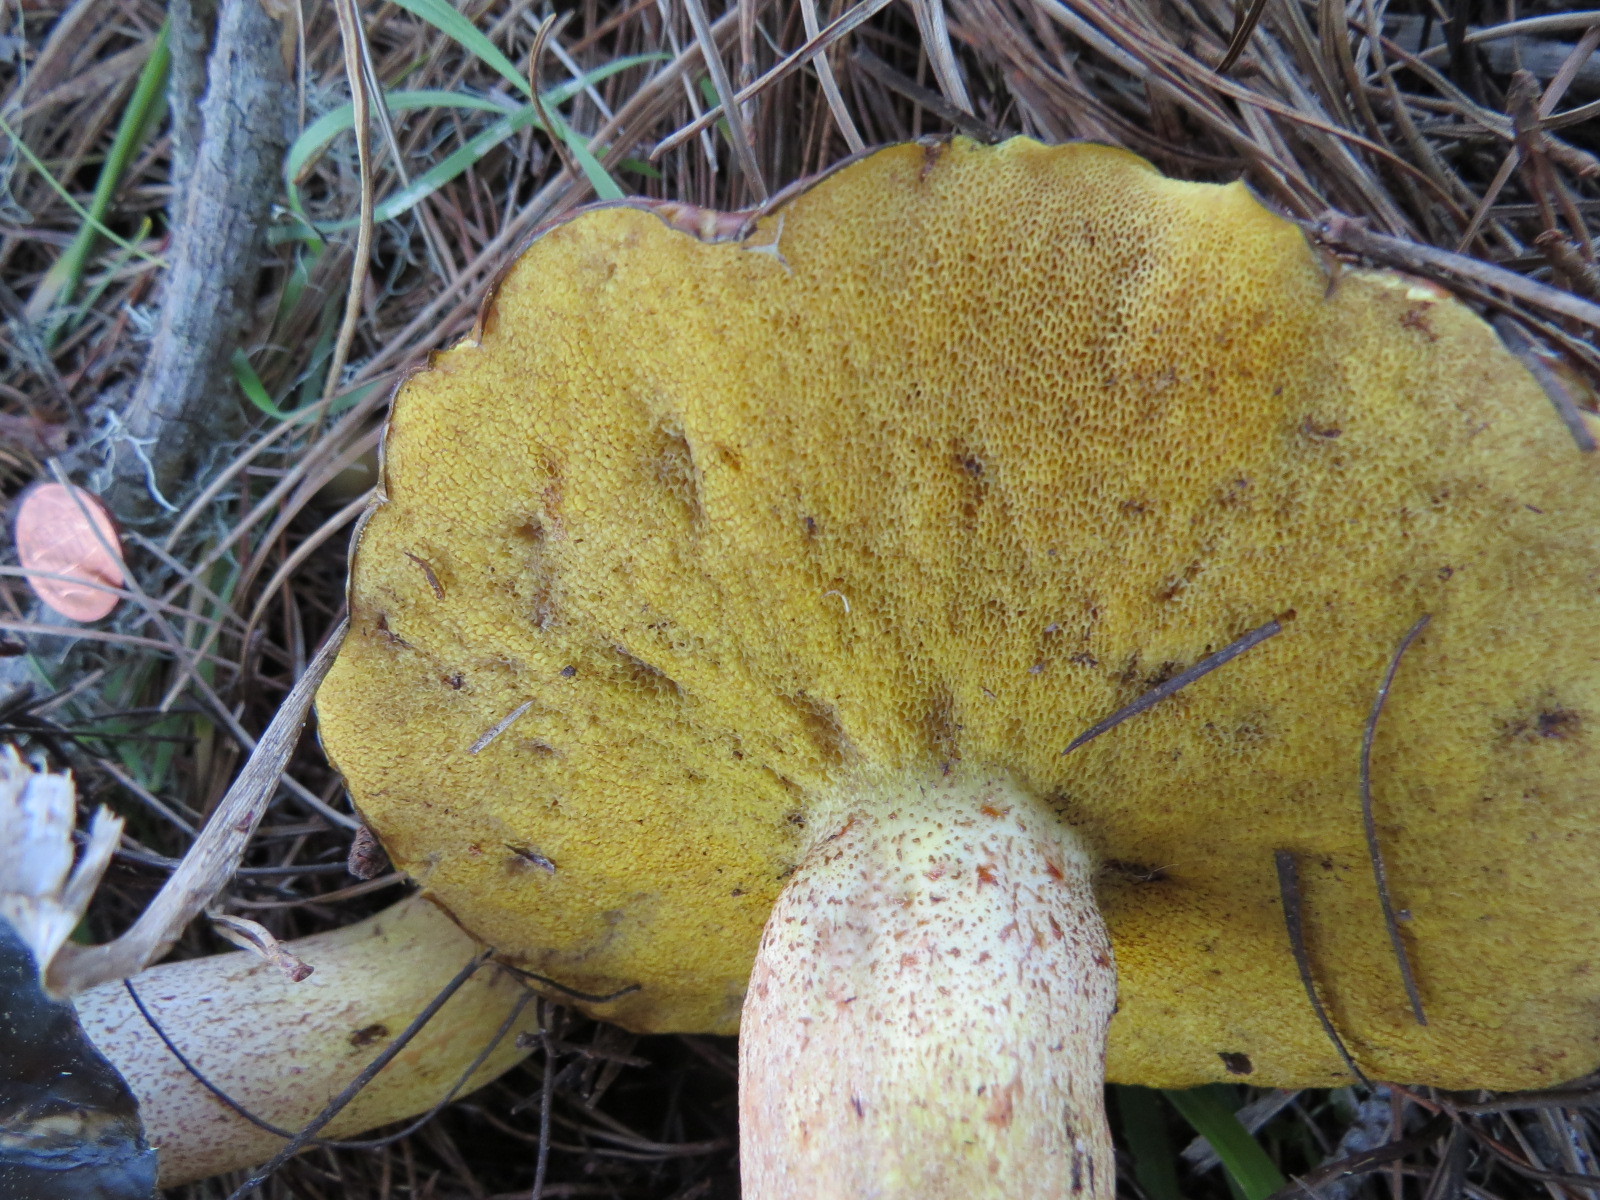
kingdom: Fungi
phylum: Basidiomycota
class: Agaricomycetes
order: Boletales
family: Suillaceae
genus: Suillus
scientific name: Suillus pungens
